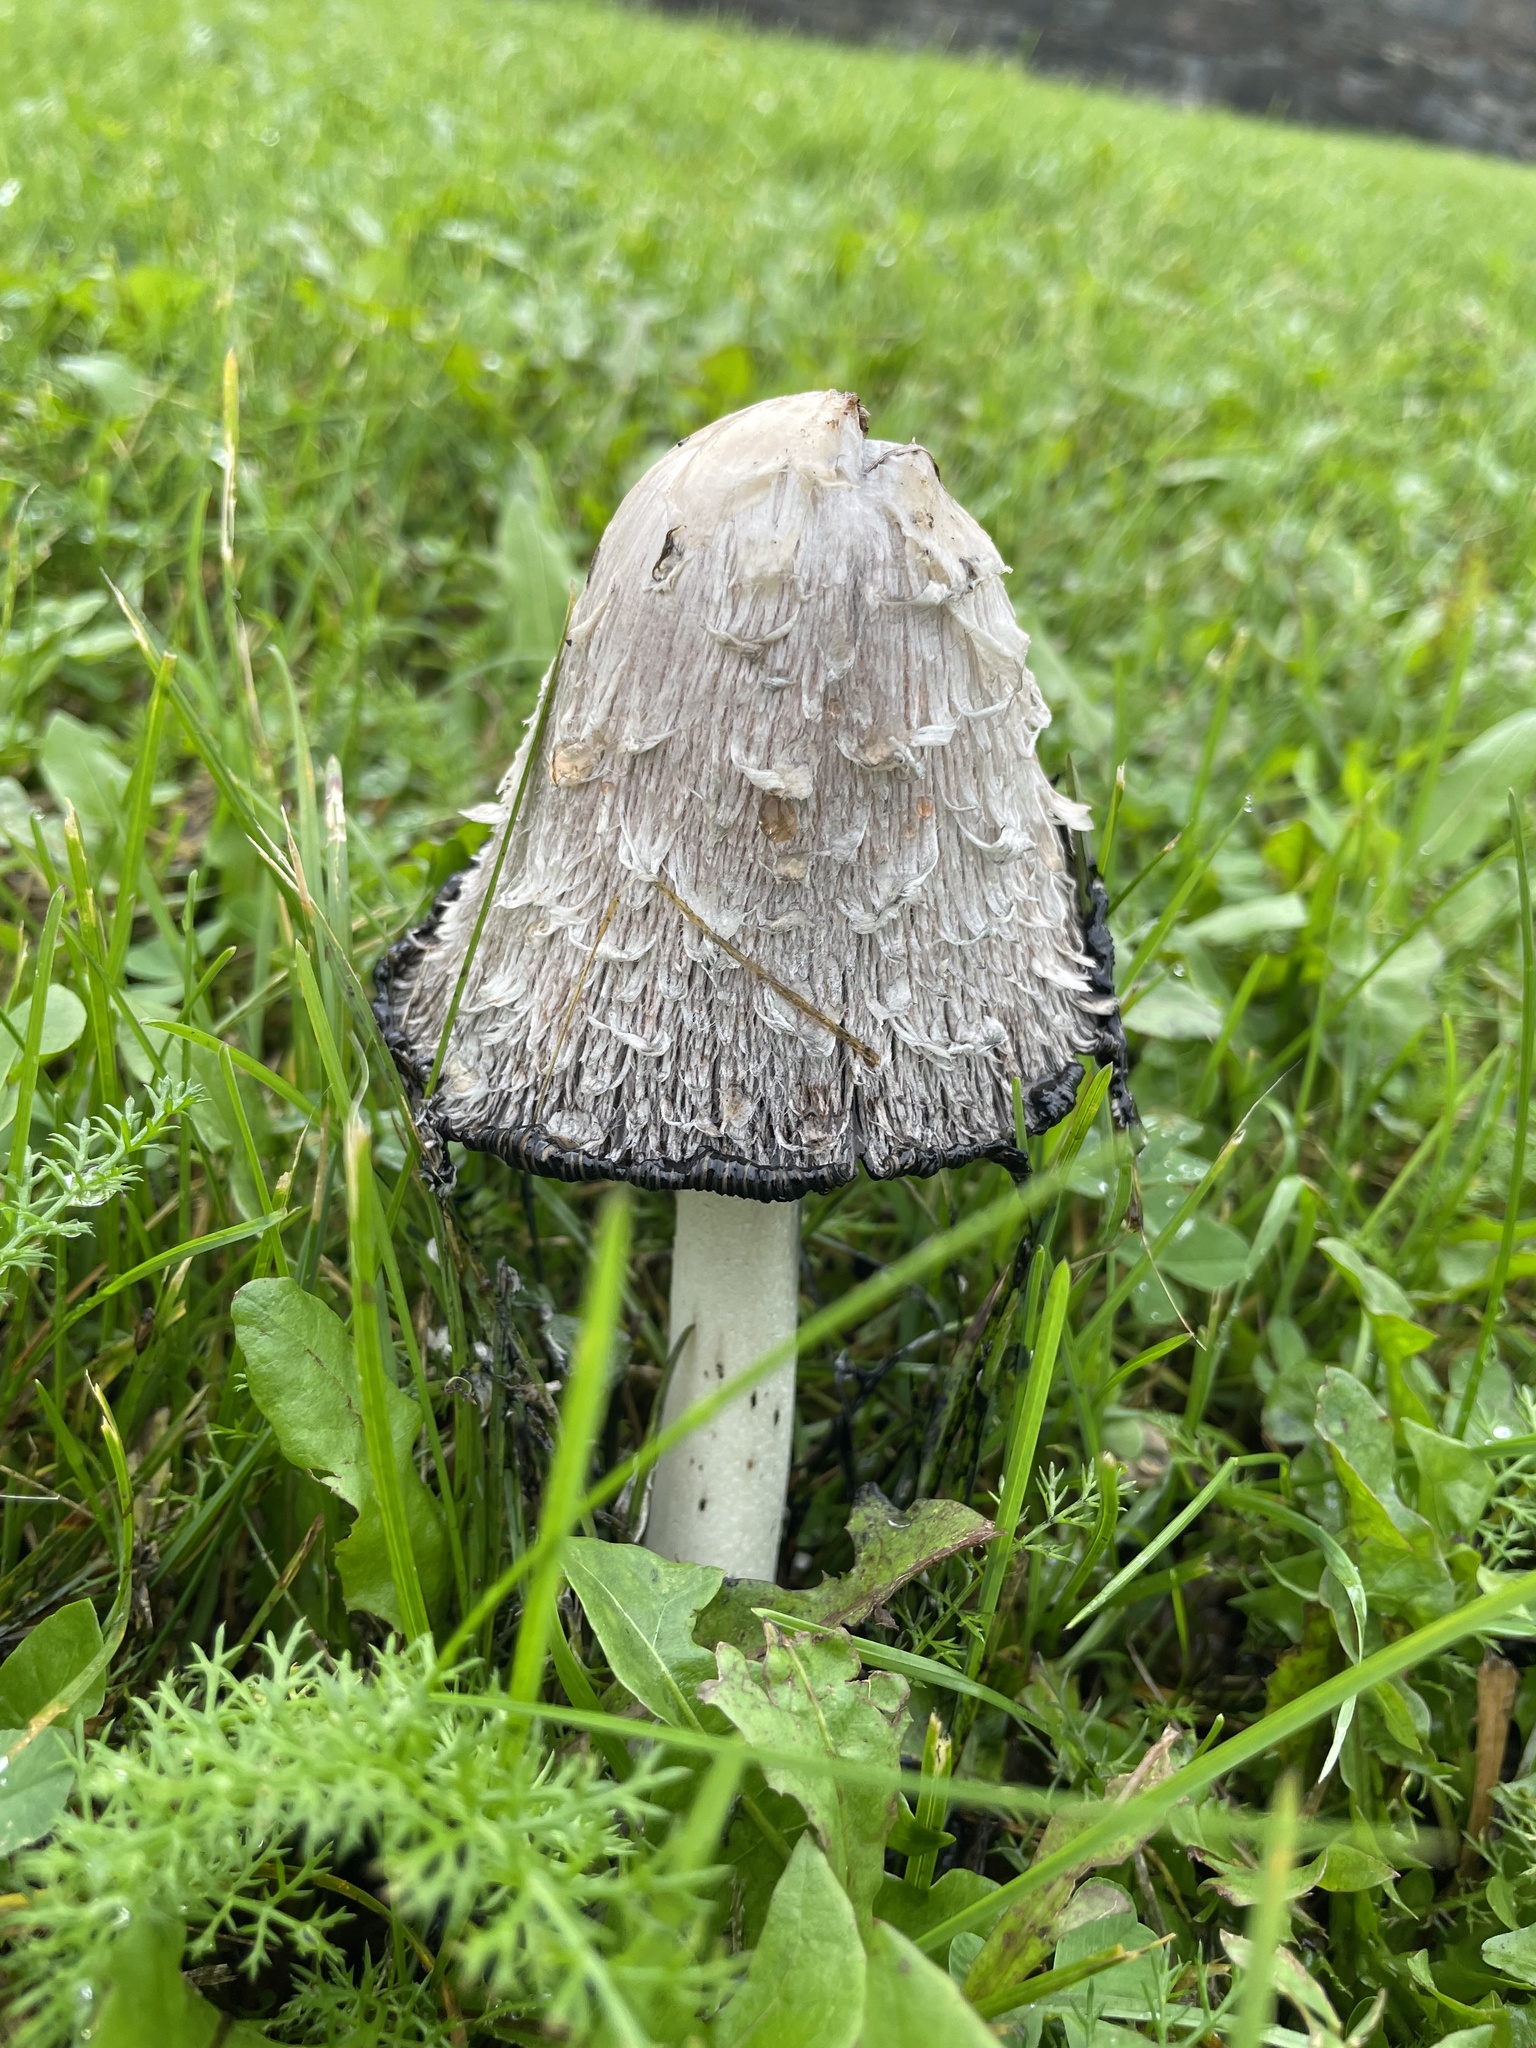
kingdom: Fungi
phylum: Basidiomycota
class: Agaricomycetes
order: Agaricales
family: Agaricaceae
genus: Coprinus
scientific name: Coprinus comatus
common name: Lawyer's wig
